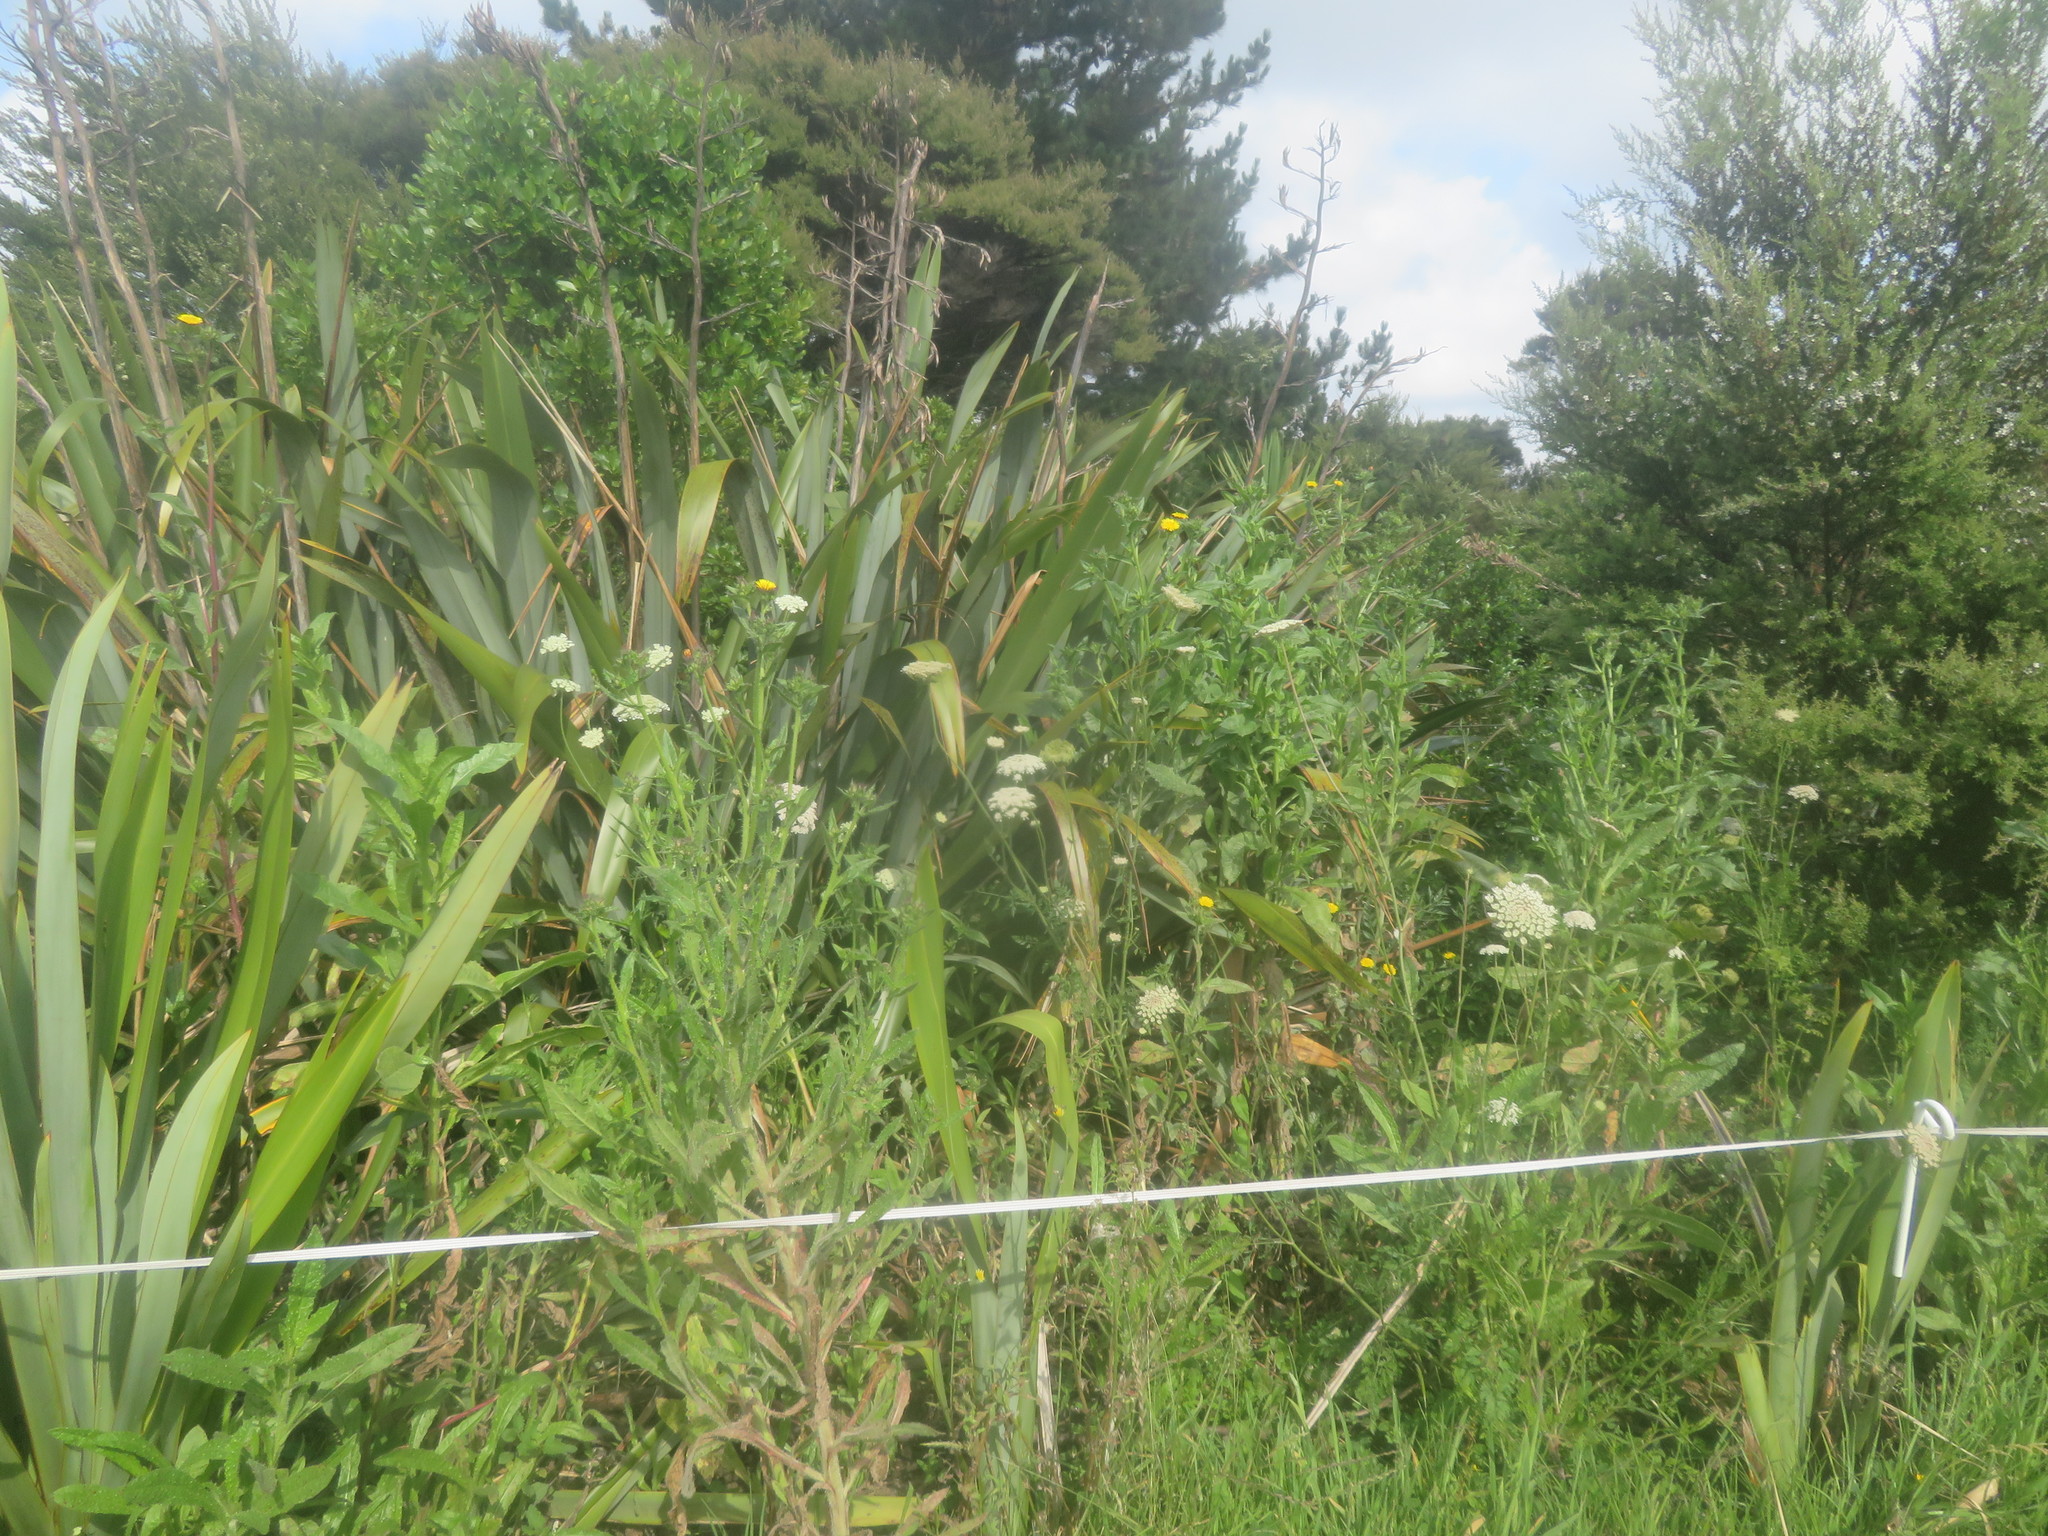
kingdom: Plantae
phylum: Tracheophyta
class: Magnoliopsida
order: Apiales
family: Apiaceae
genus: Daucus
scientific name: Daucus carota
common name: Wild carrot
